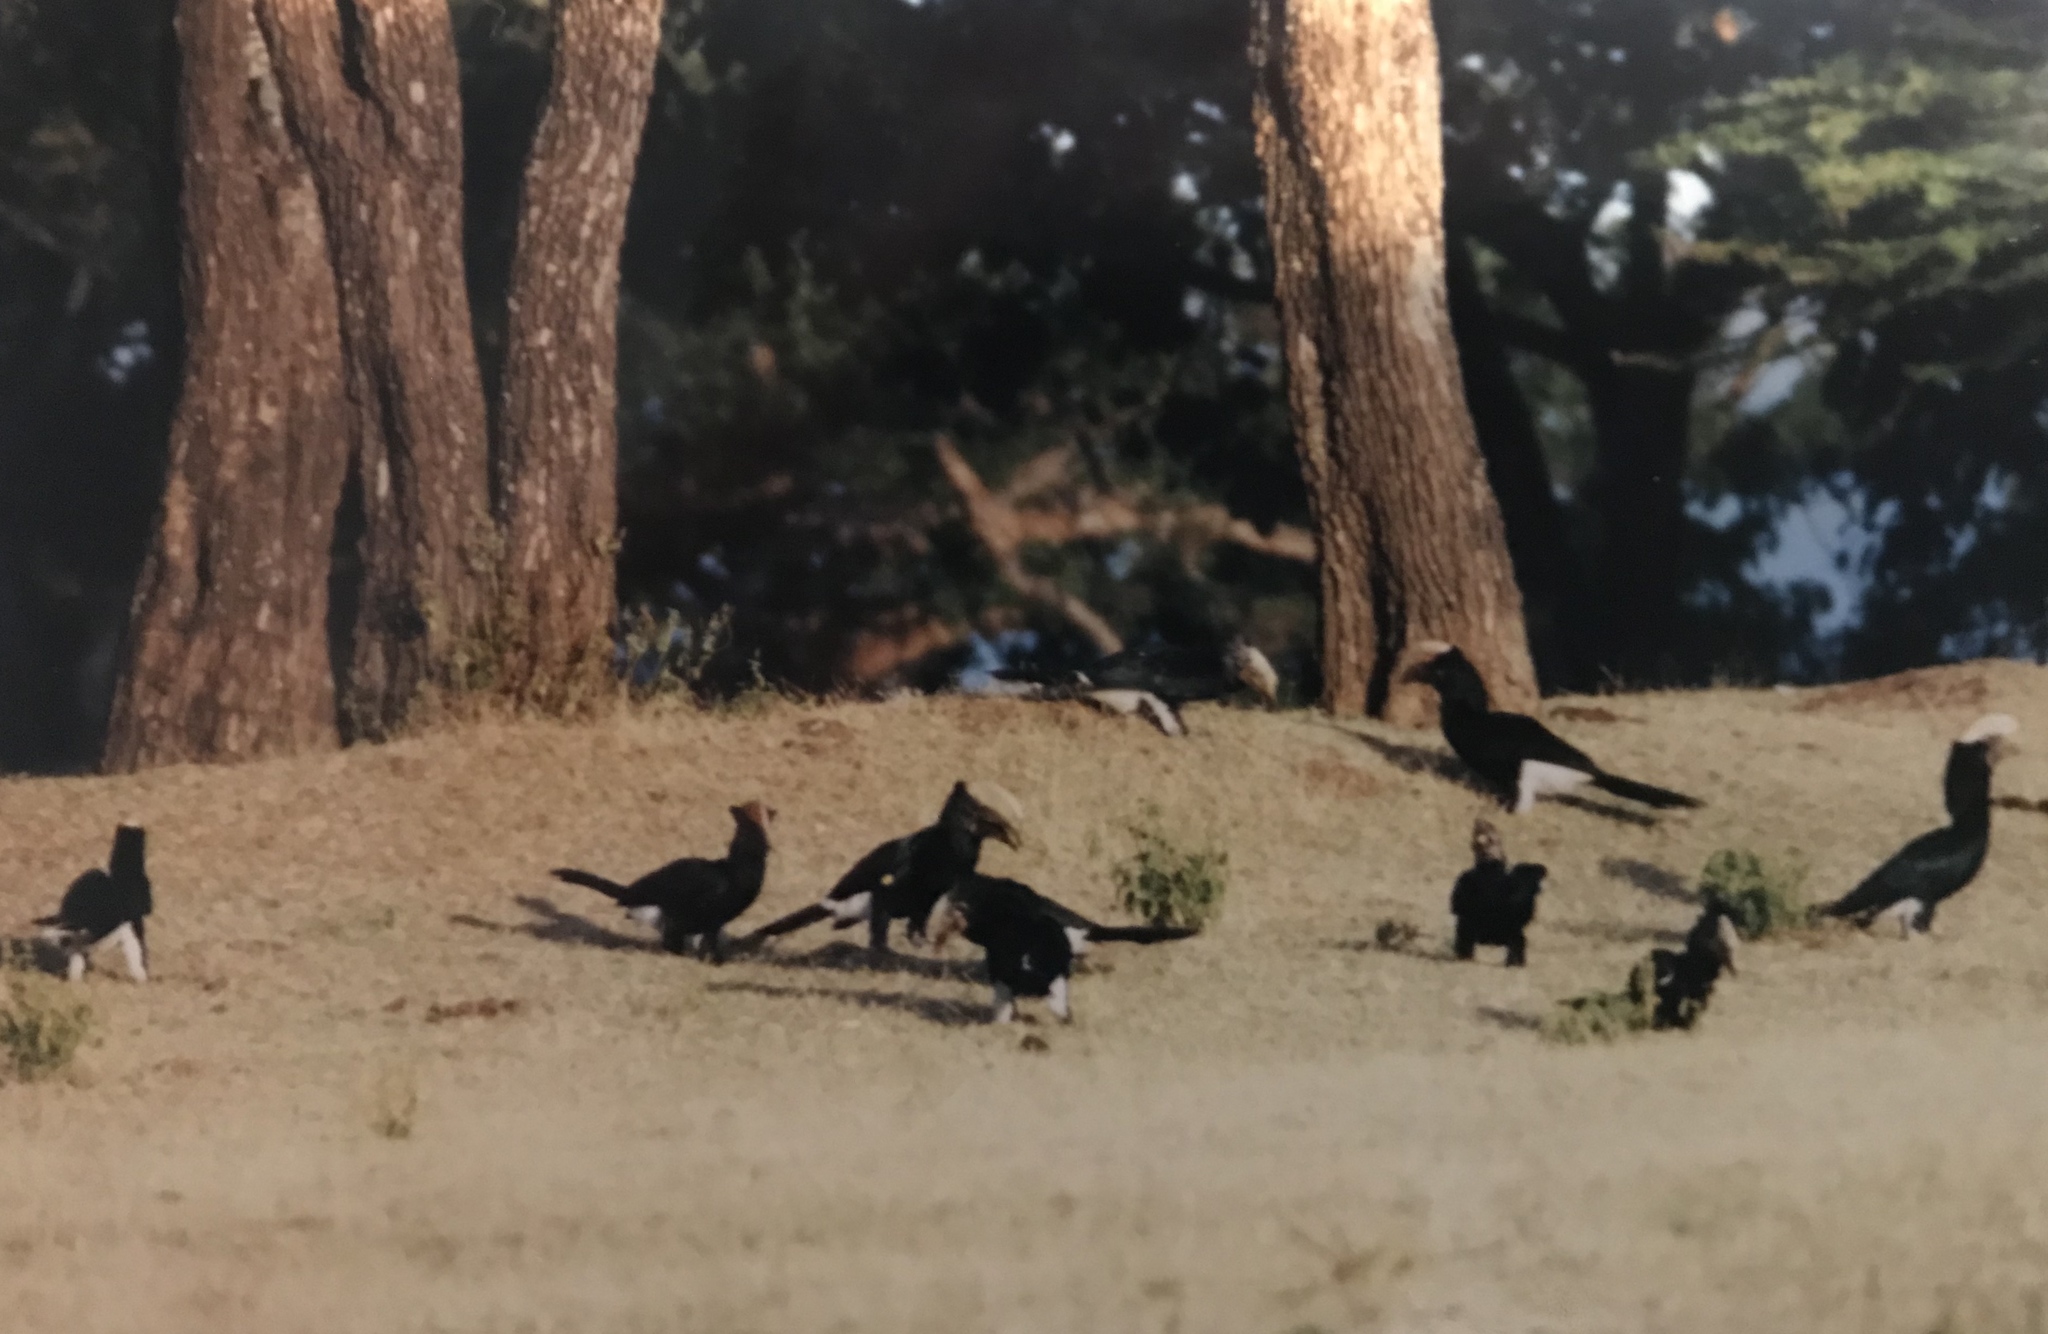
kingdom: Animalia
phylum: Chordata
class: Aves
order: Bucerotiformes
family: Bucerotidae
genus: Bycanistes
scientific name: Bycanistes brevis
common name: Silvery-cheeked hornbill
